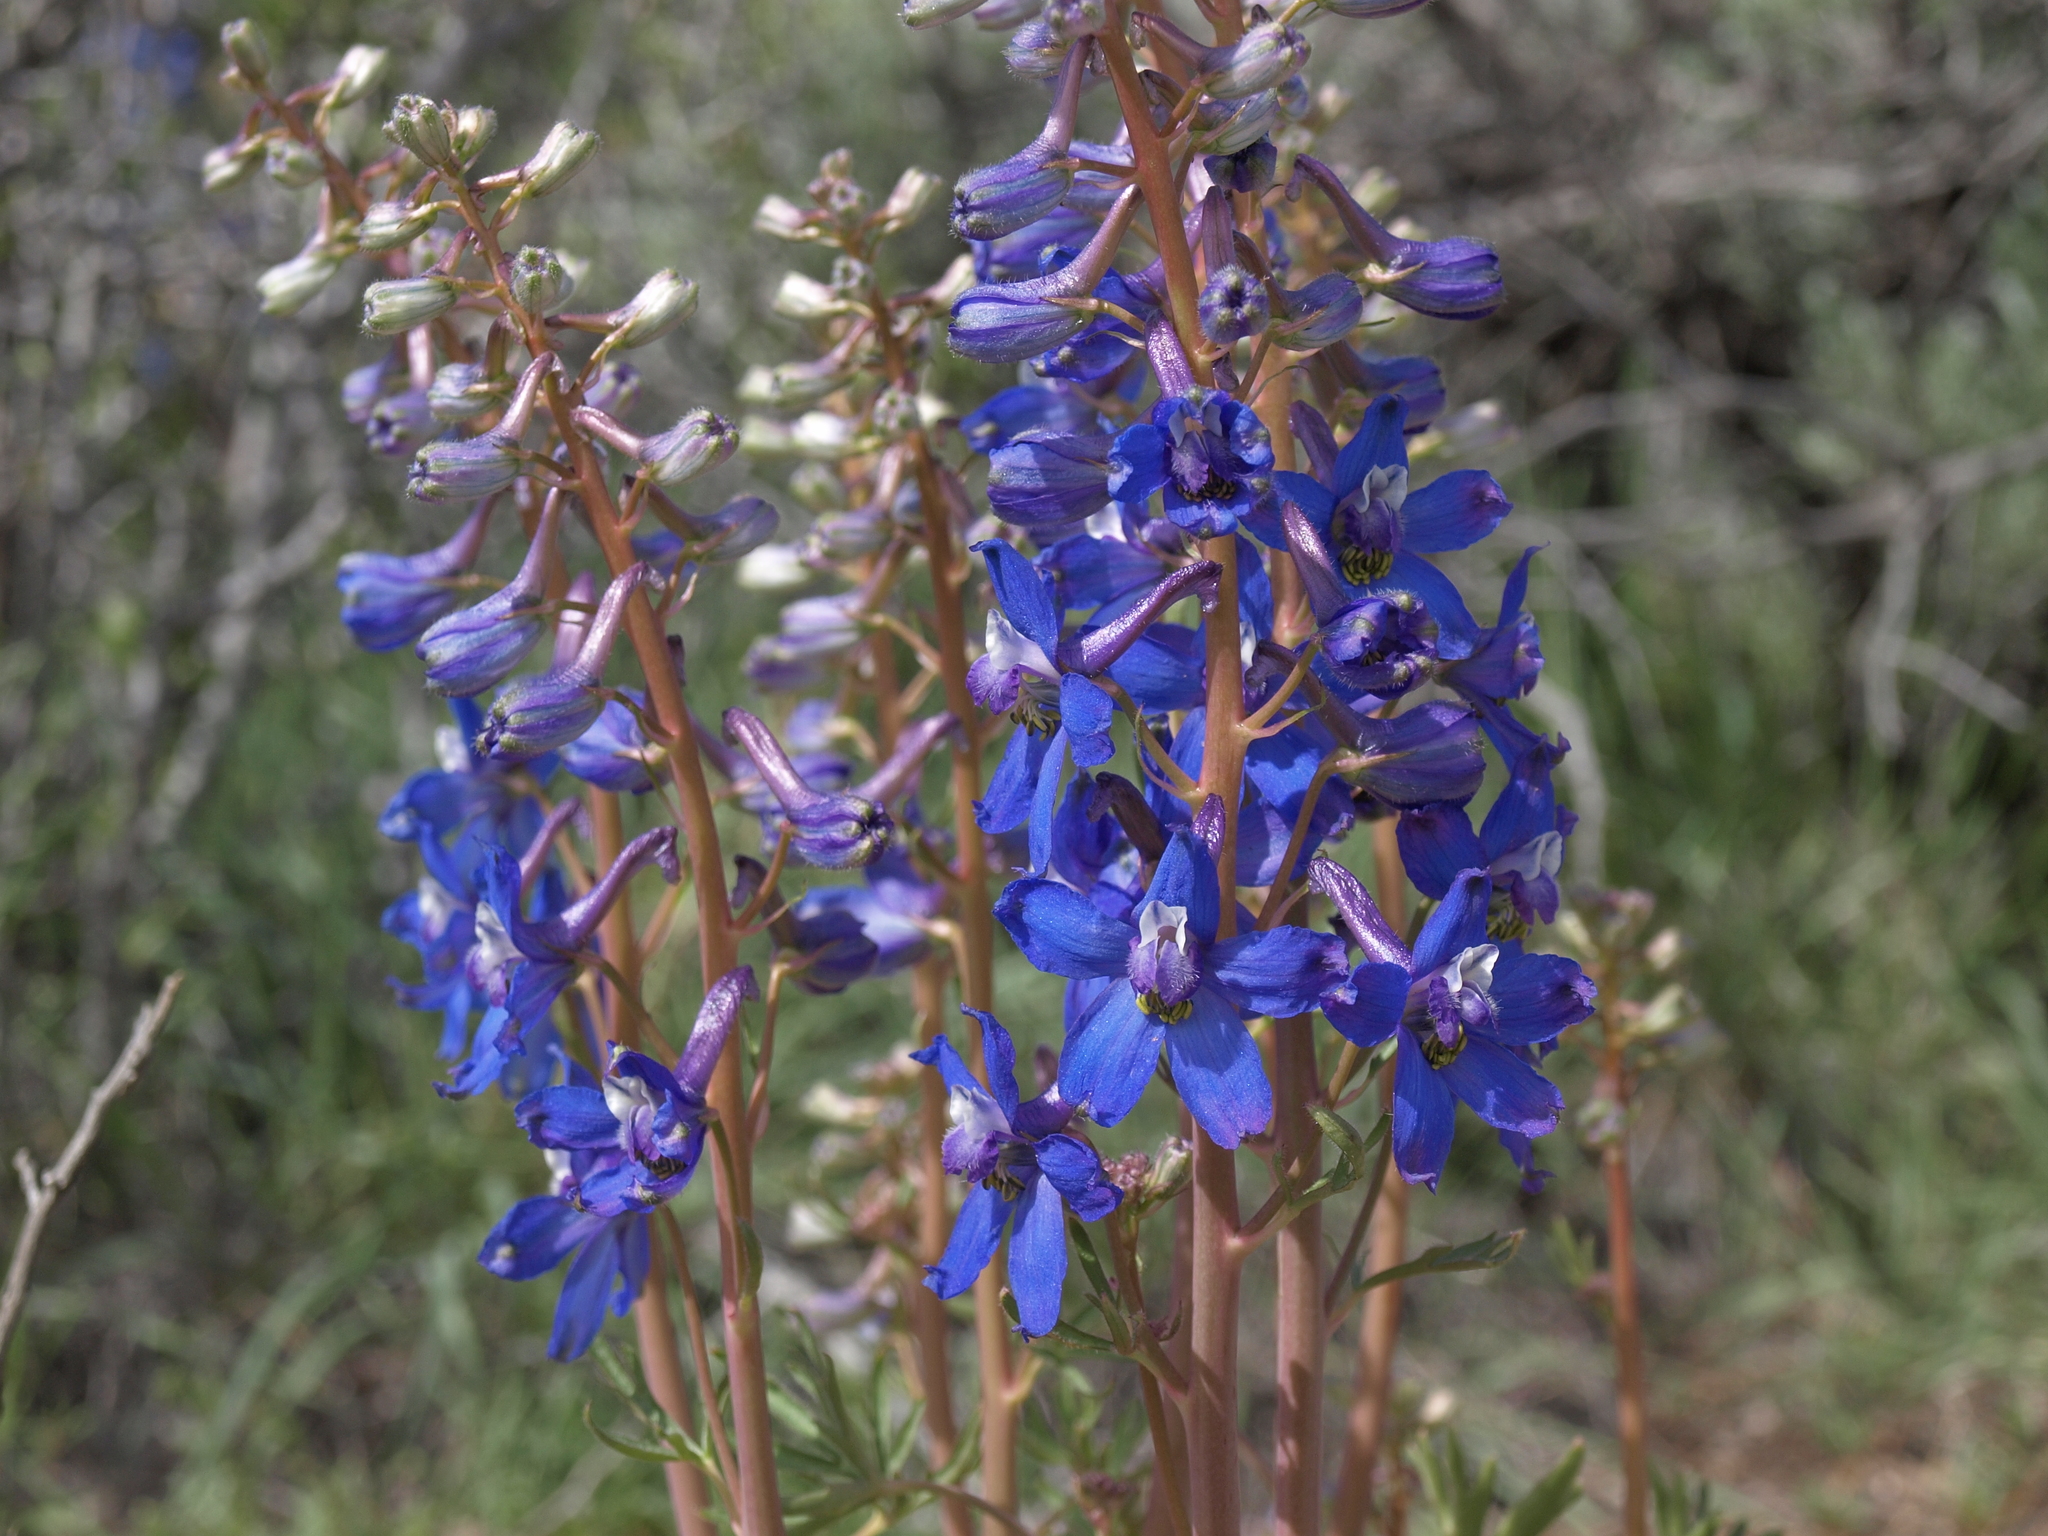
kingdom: Plantae
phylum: Tracheophyta
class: Magnoliopsida
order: Ranunculales
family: Ranunculaceae
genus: Delphinium
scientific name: Delphinium andersonii
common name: Anderson's larkspur
